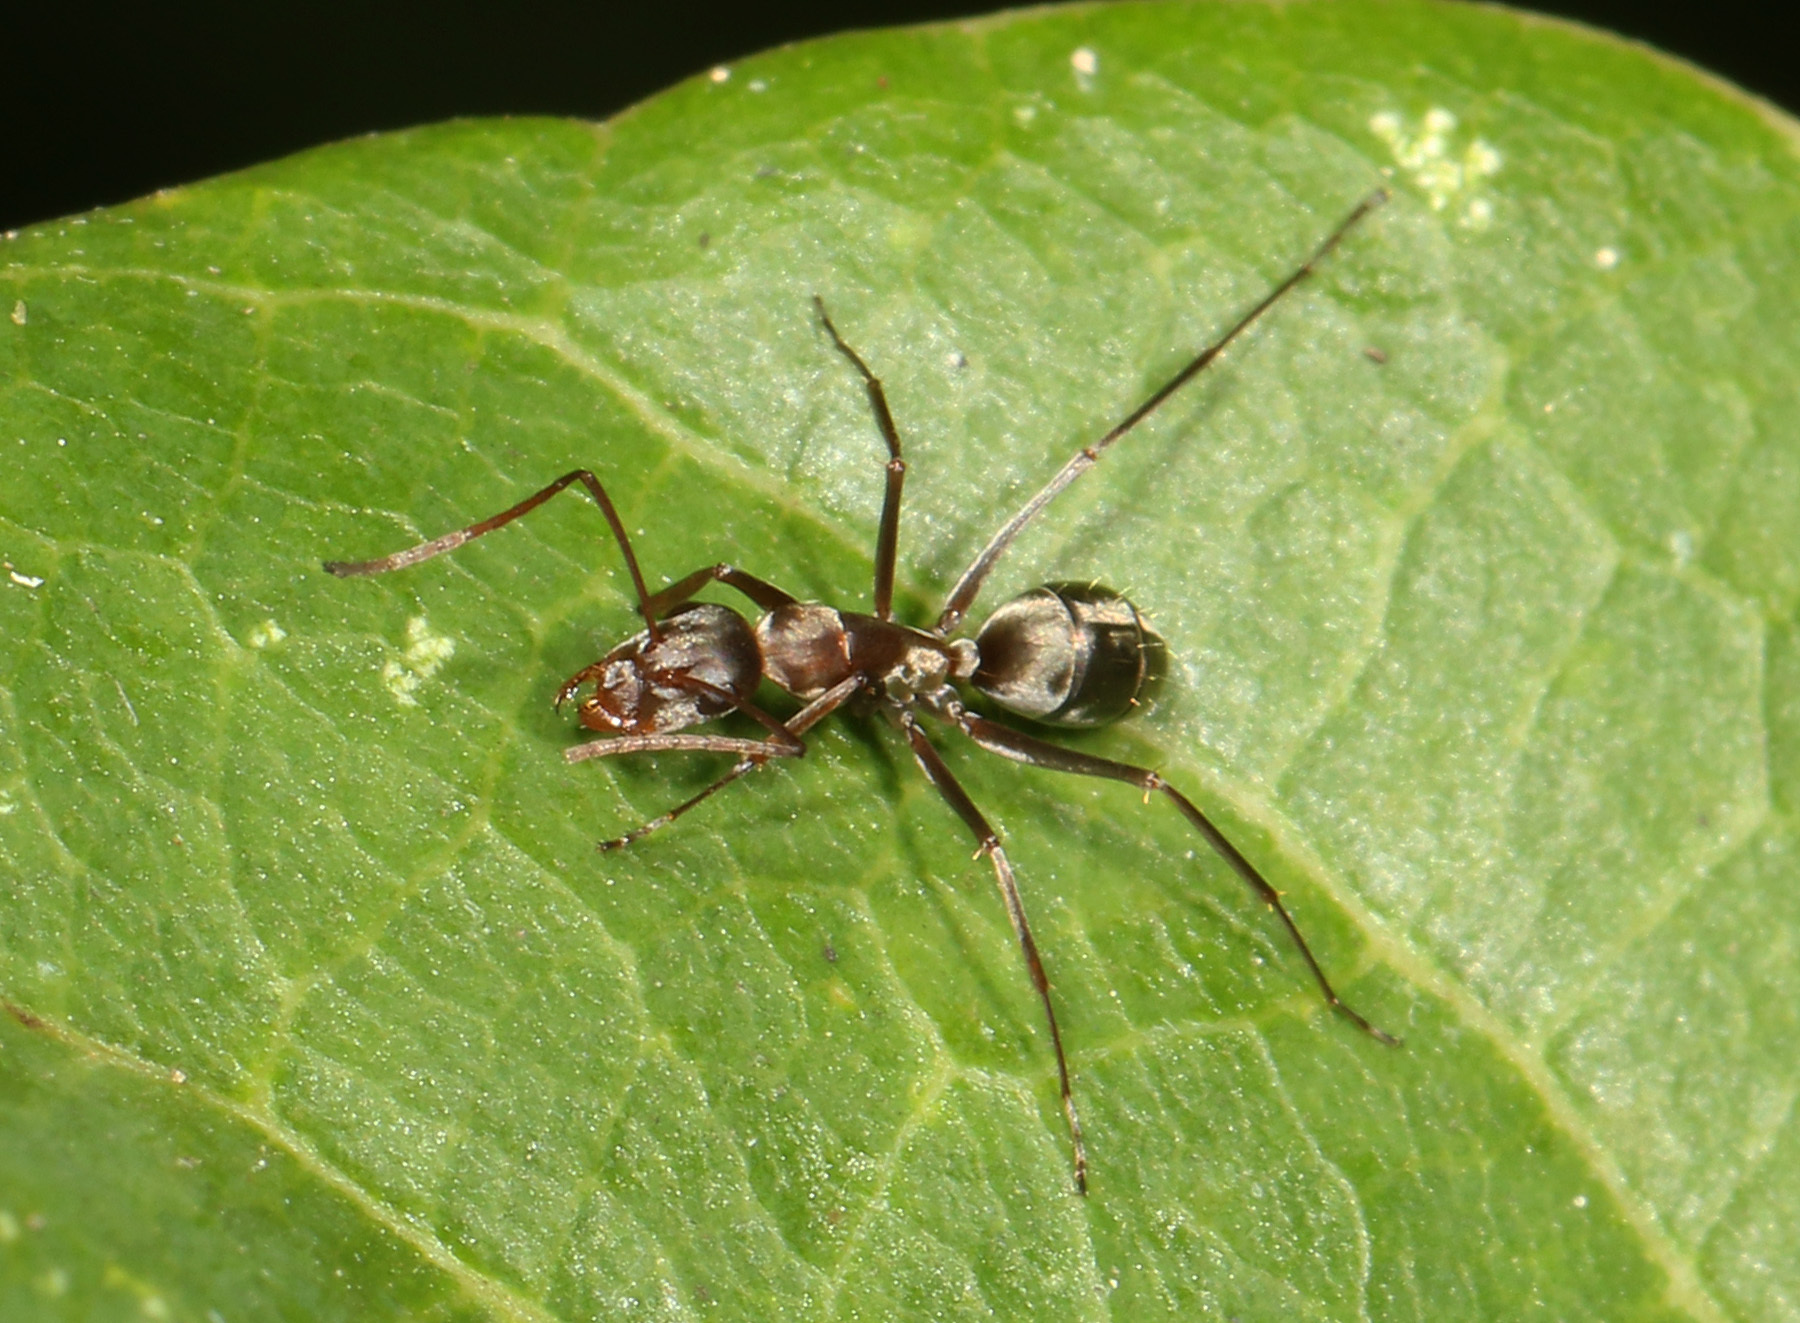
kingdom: Animalia
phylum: Arthropoda
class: Insecta
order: Hymenoptera
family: Formicidae
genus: Camponotus
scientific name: Camponotus vestitus
